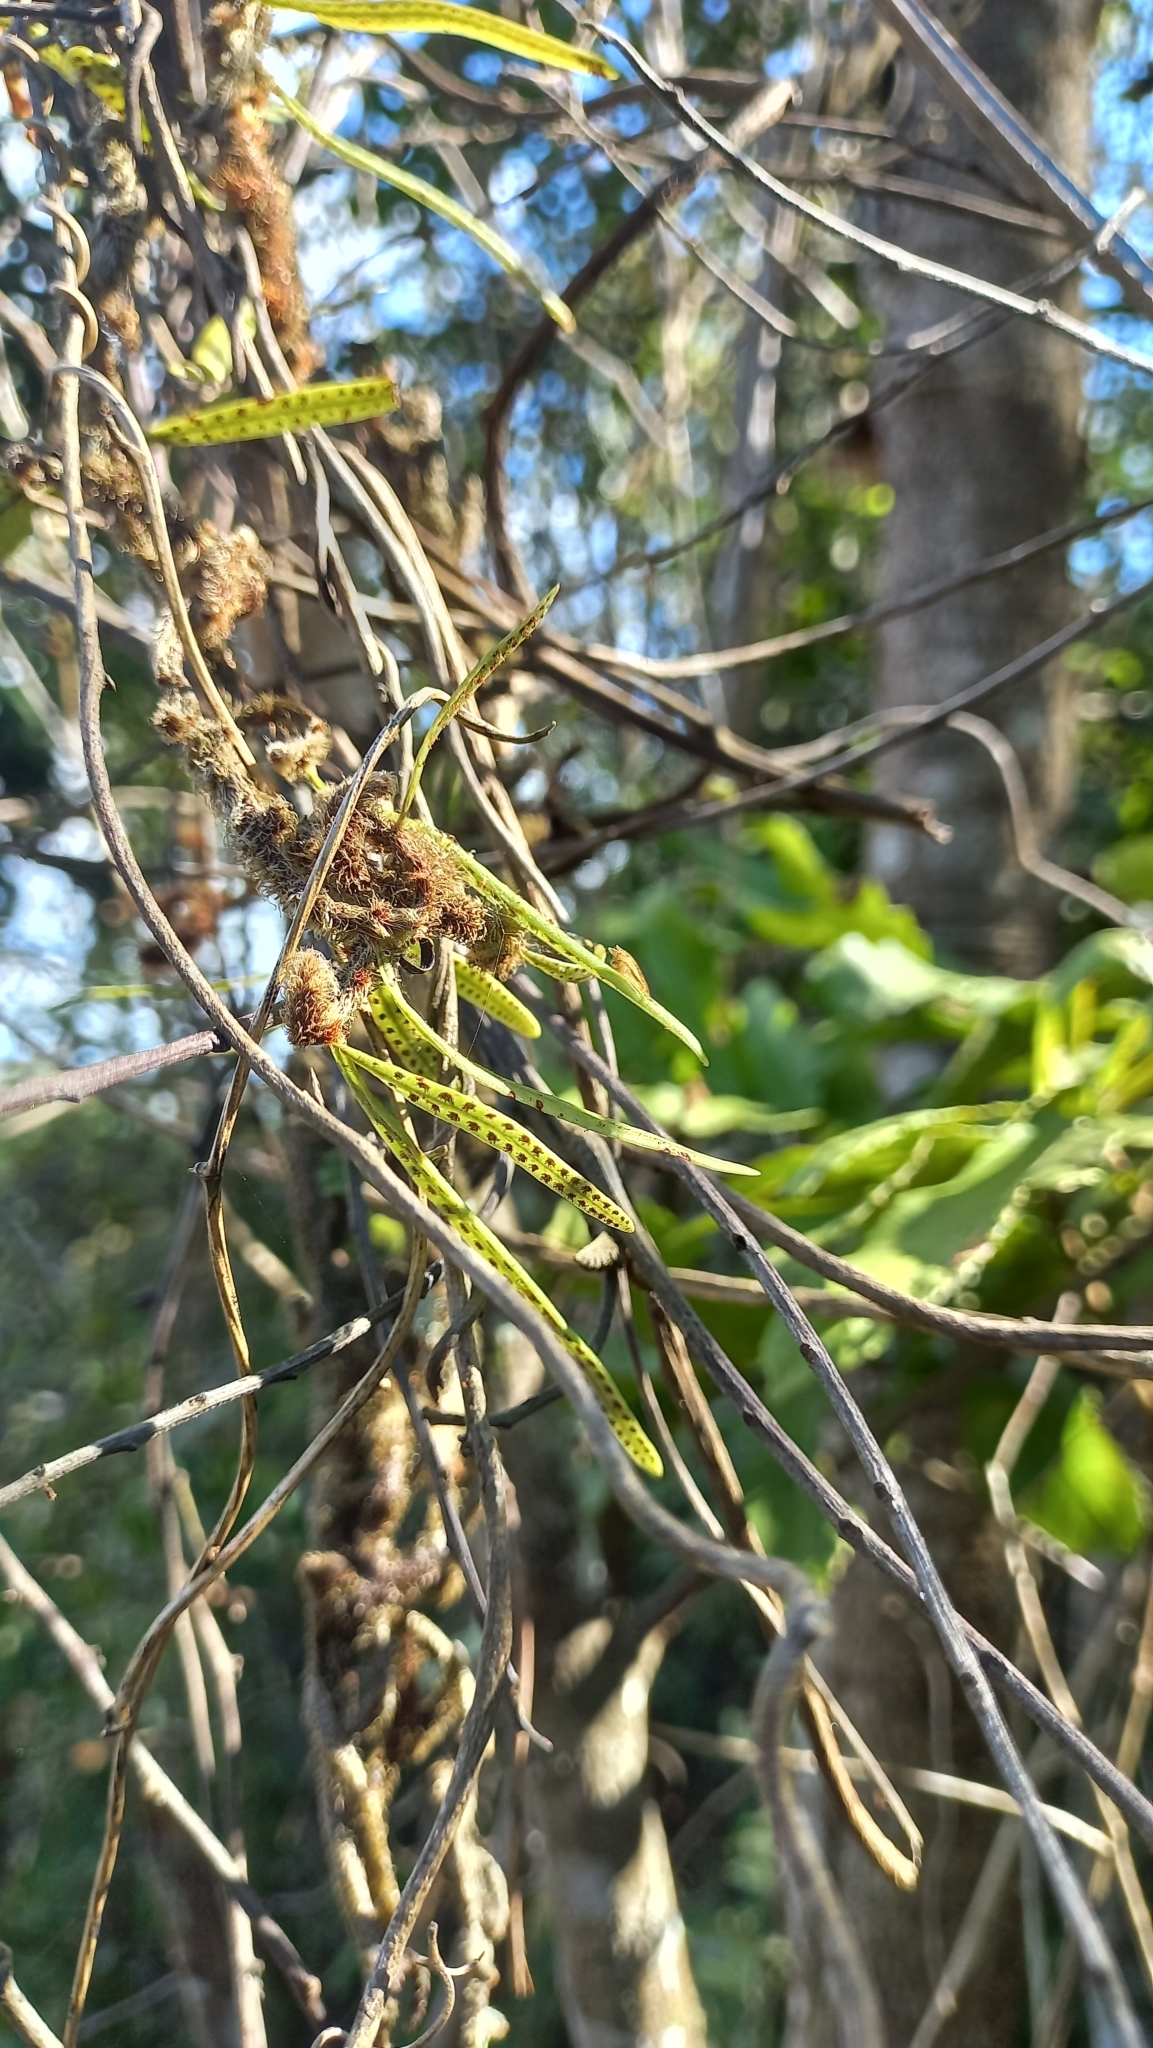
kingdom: Plantae
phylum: Tracheophyta
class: Polypodiopsida
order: Polypodiales
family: Polypodiaceae
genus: Microgramma
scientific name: Microgramma vaccinifolia
